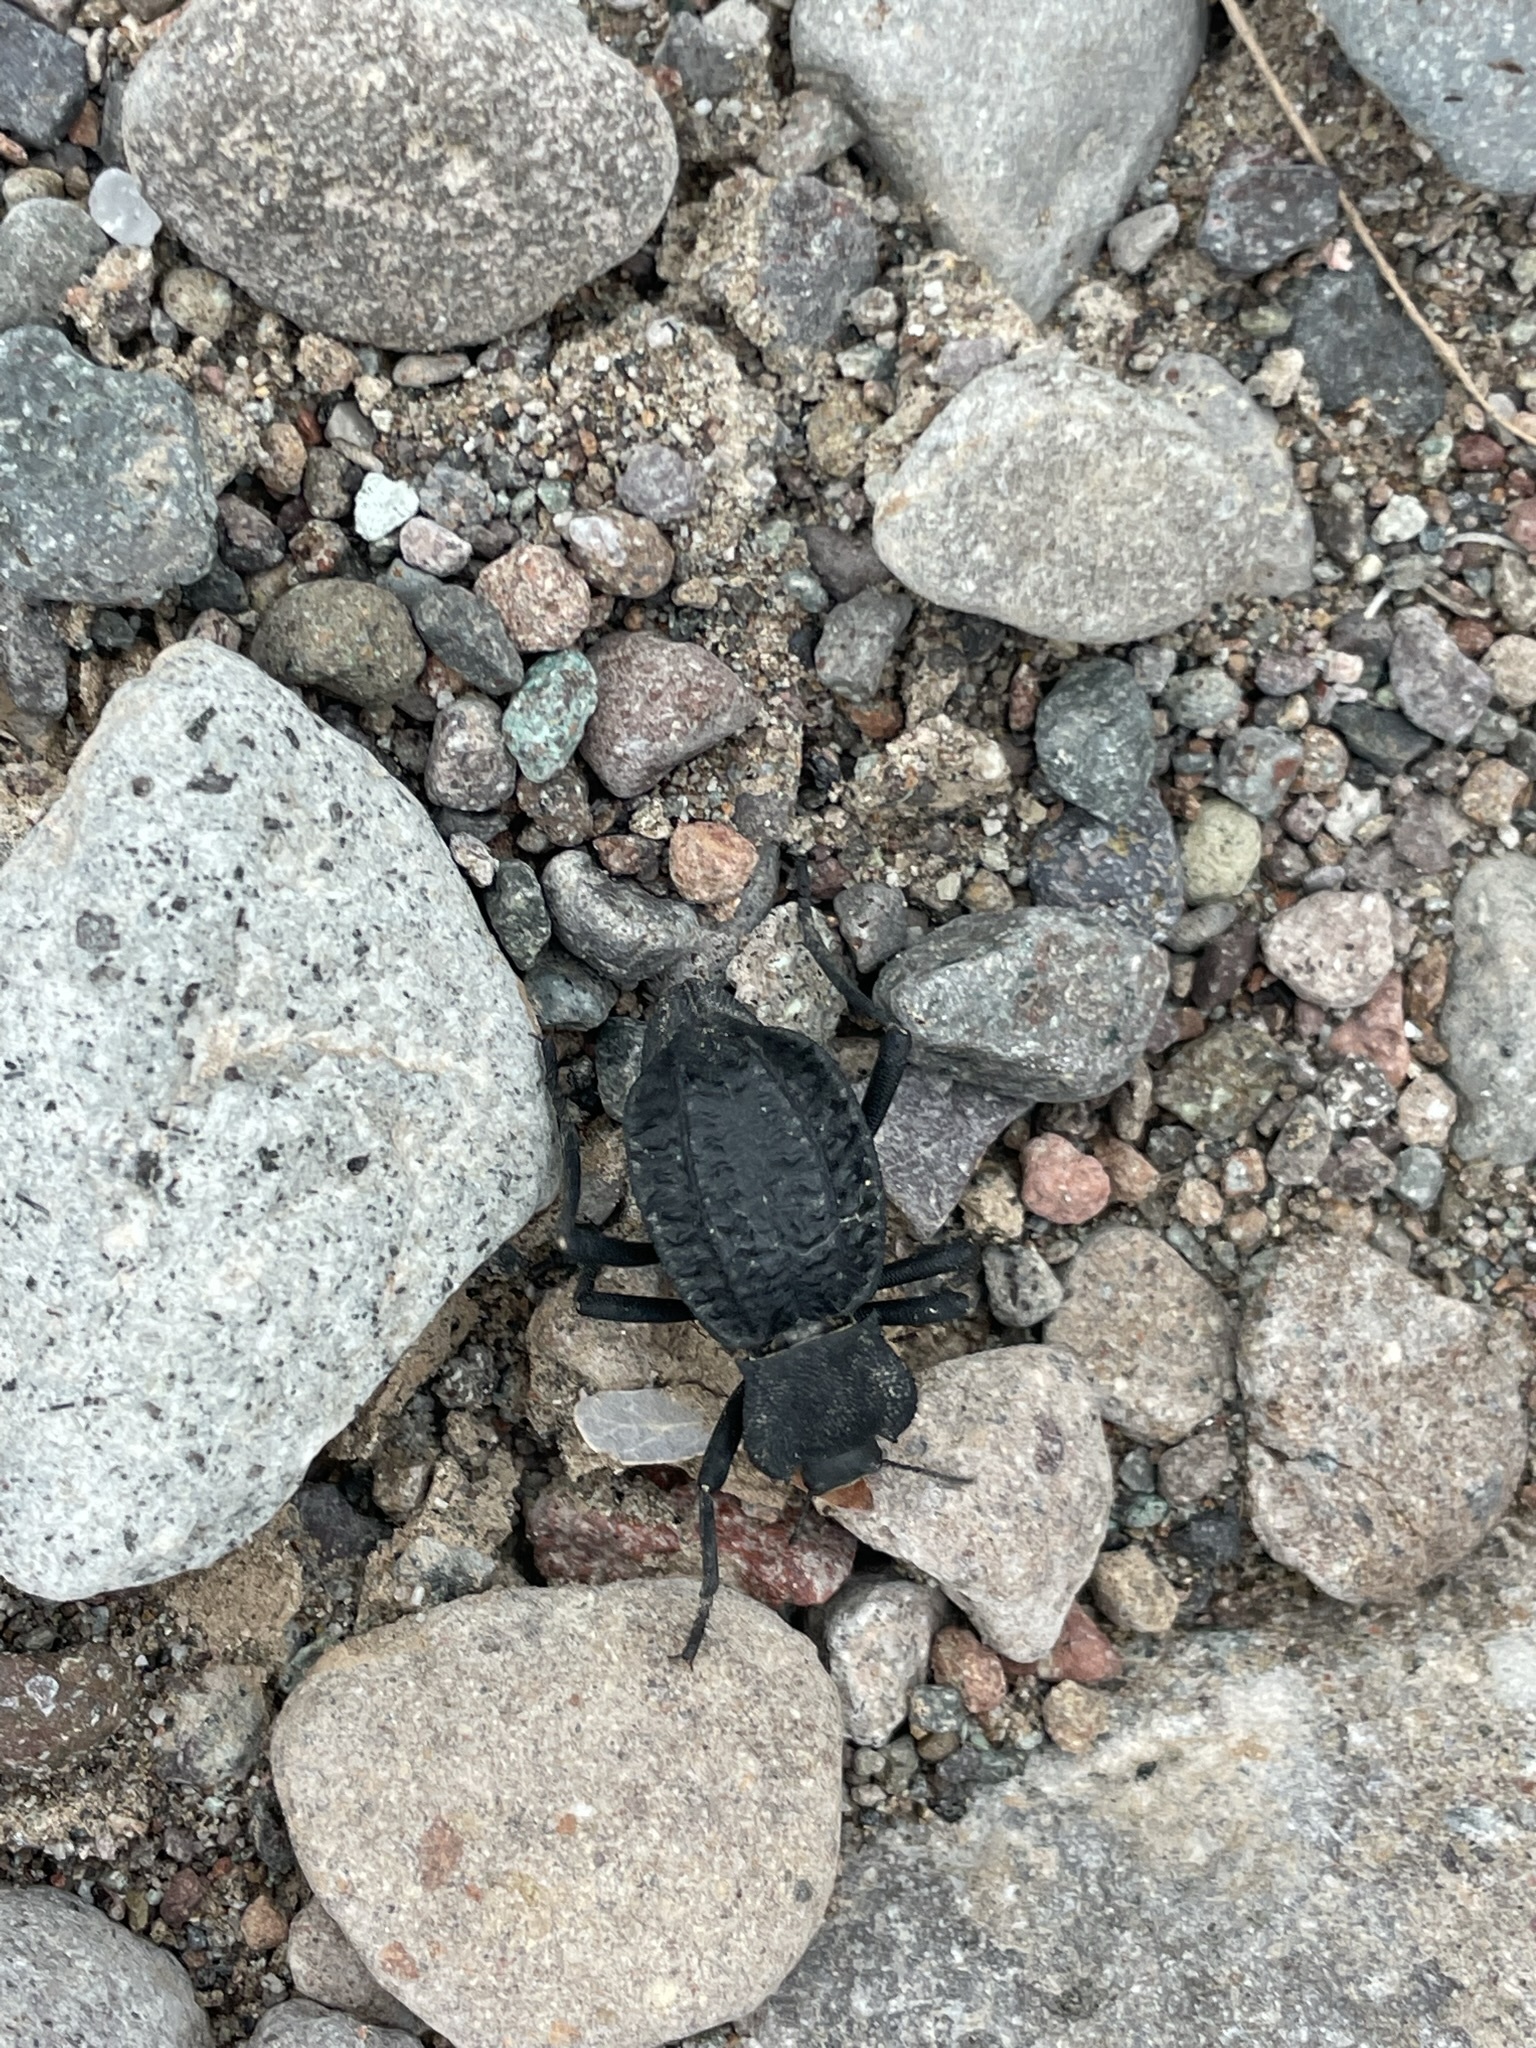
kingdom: Animalia
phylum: Arthropoda
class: Insecta
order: Coleoptera
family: Tenebrionidae
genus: Philolithus
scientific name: Philolithus aegrotus
